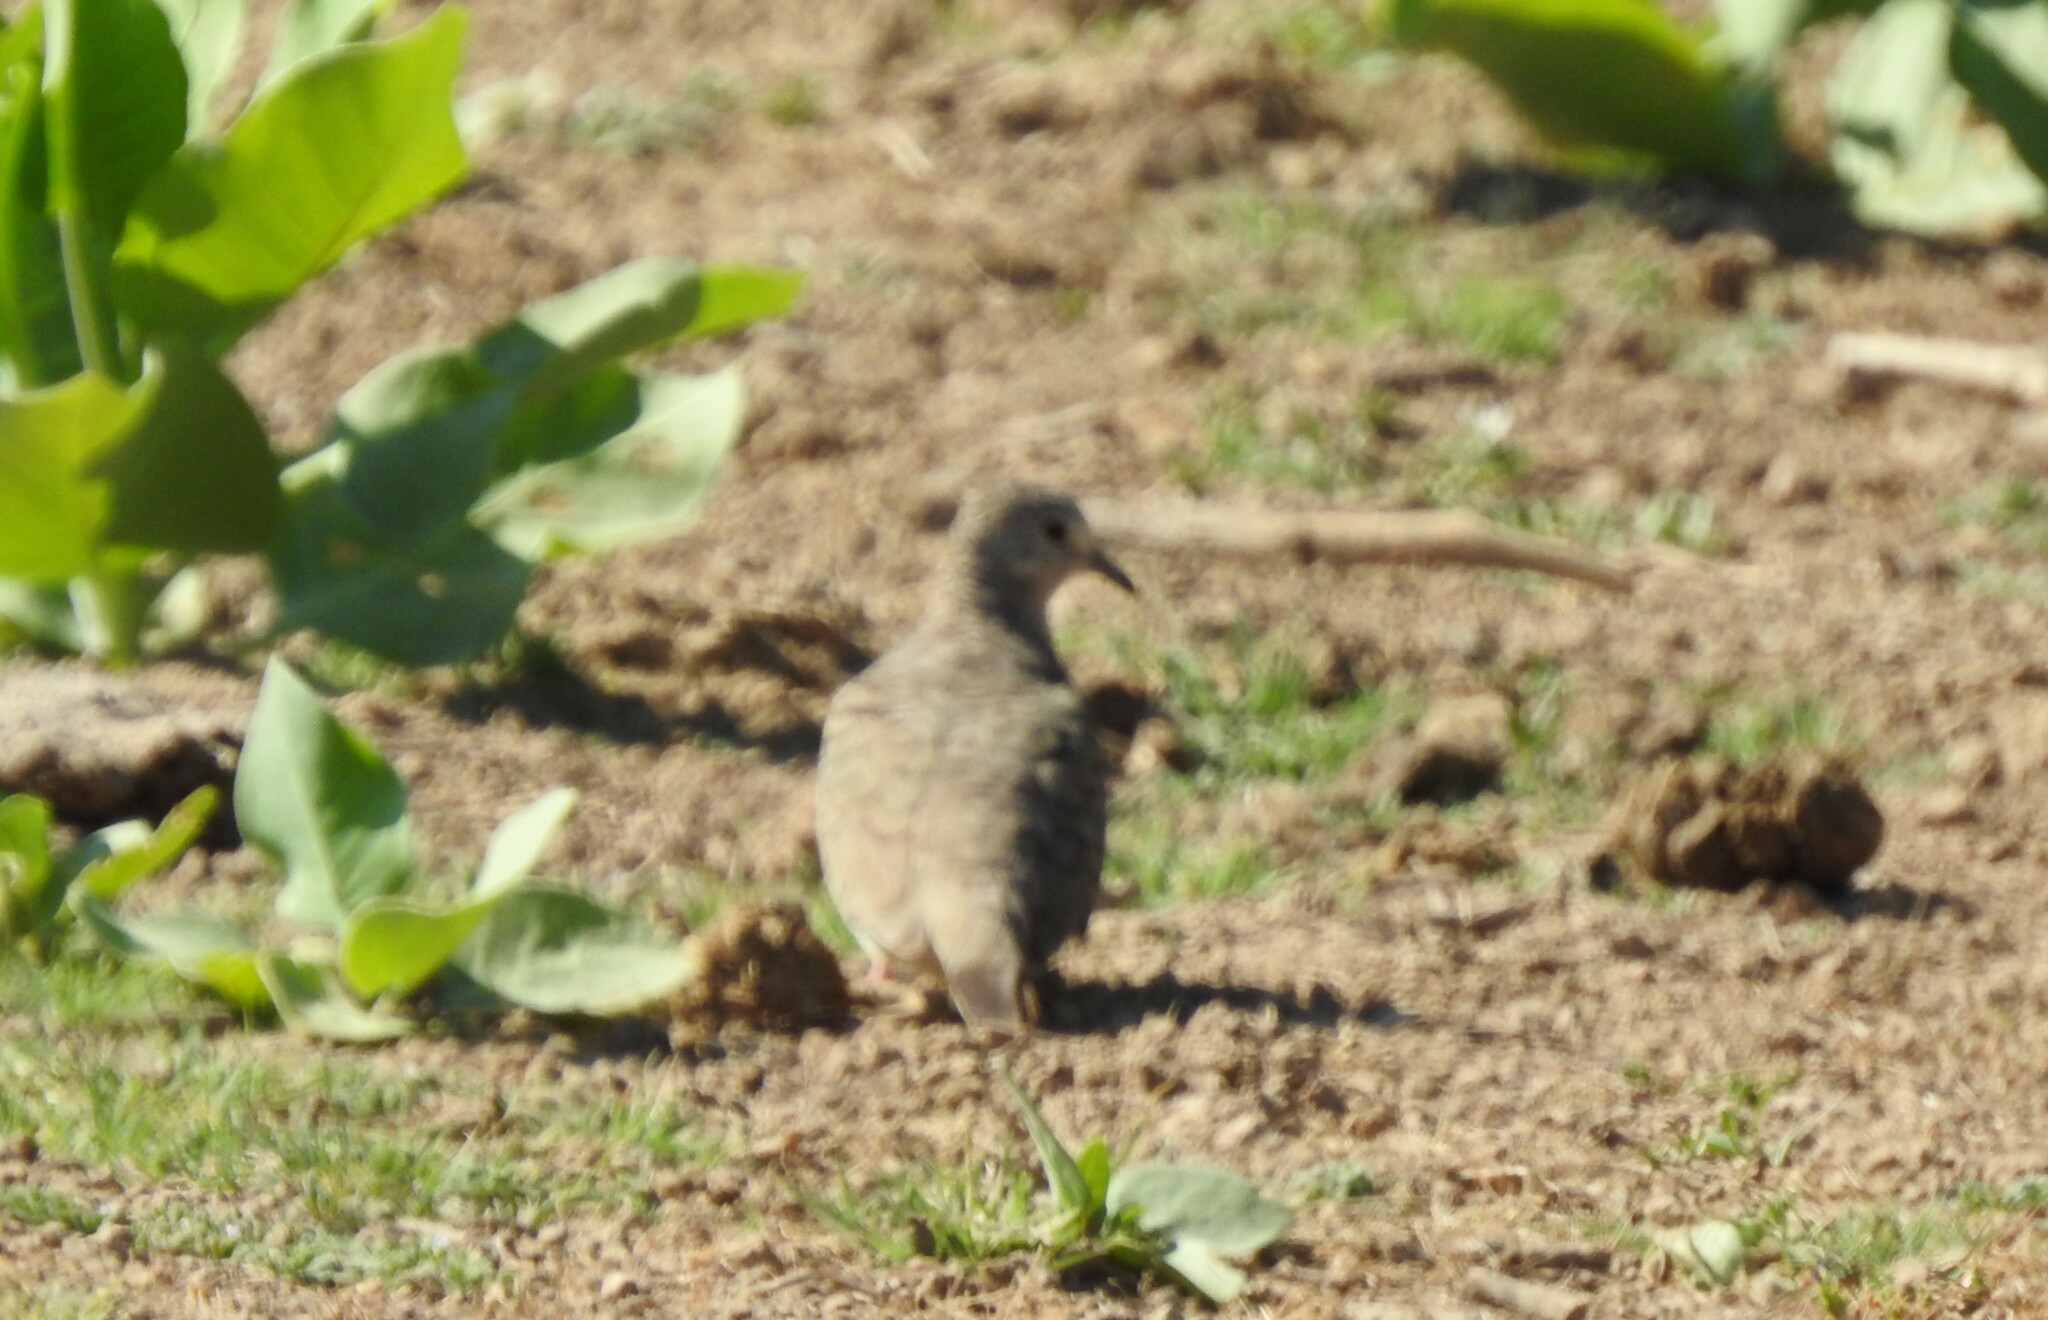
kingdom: Animalia
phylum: Chordata
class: Aves
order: Columbiformes
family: Columbidae
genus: Columbina
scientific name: Columbina inca
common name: Inca dove
